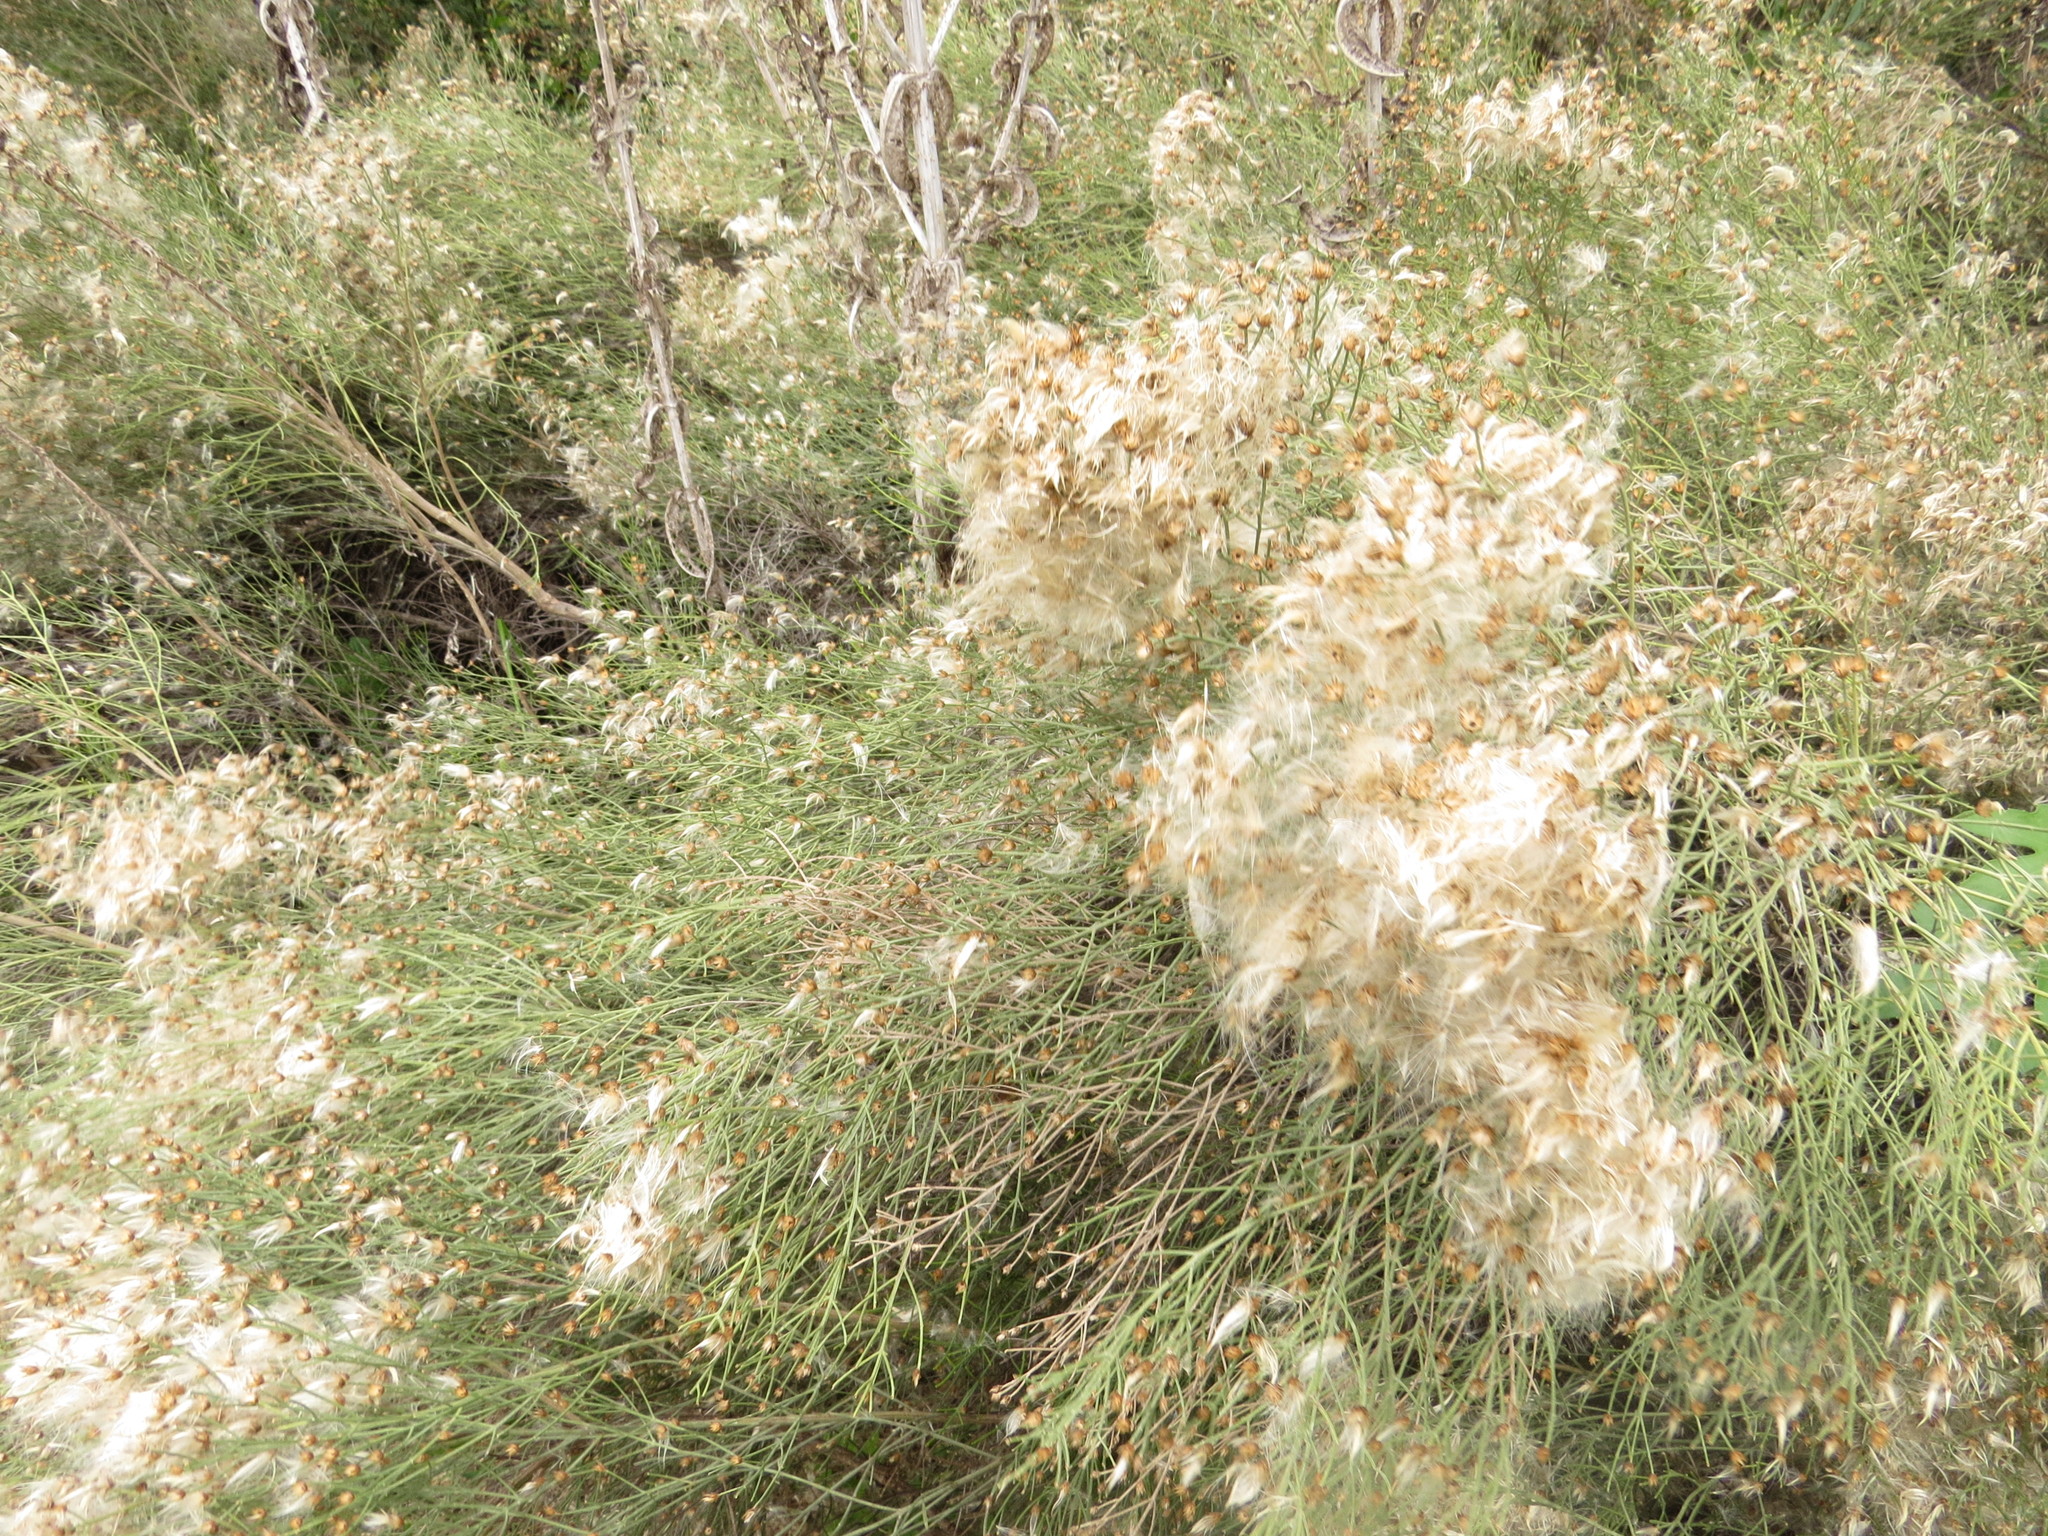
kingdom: Plantae
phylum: Tracheophyta
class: Magnoliopsida
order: Asterales
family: Asteraceae
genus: Baccharis
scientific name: Baccharis notosergila
